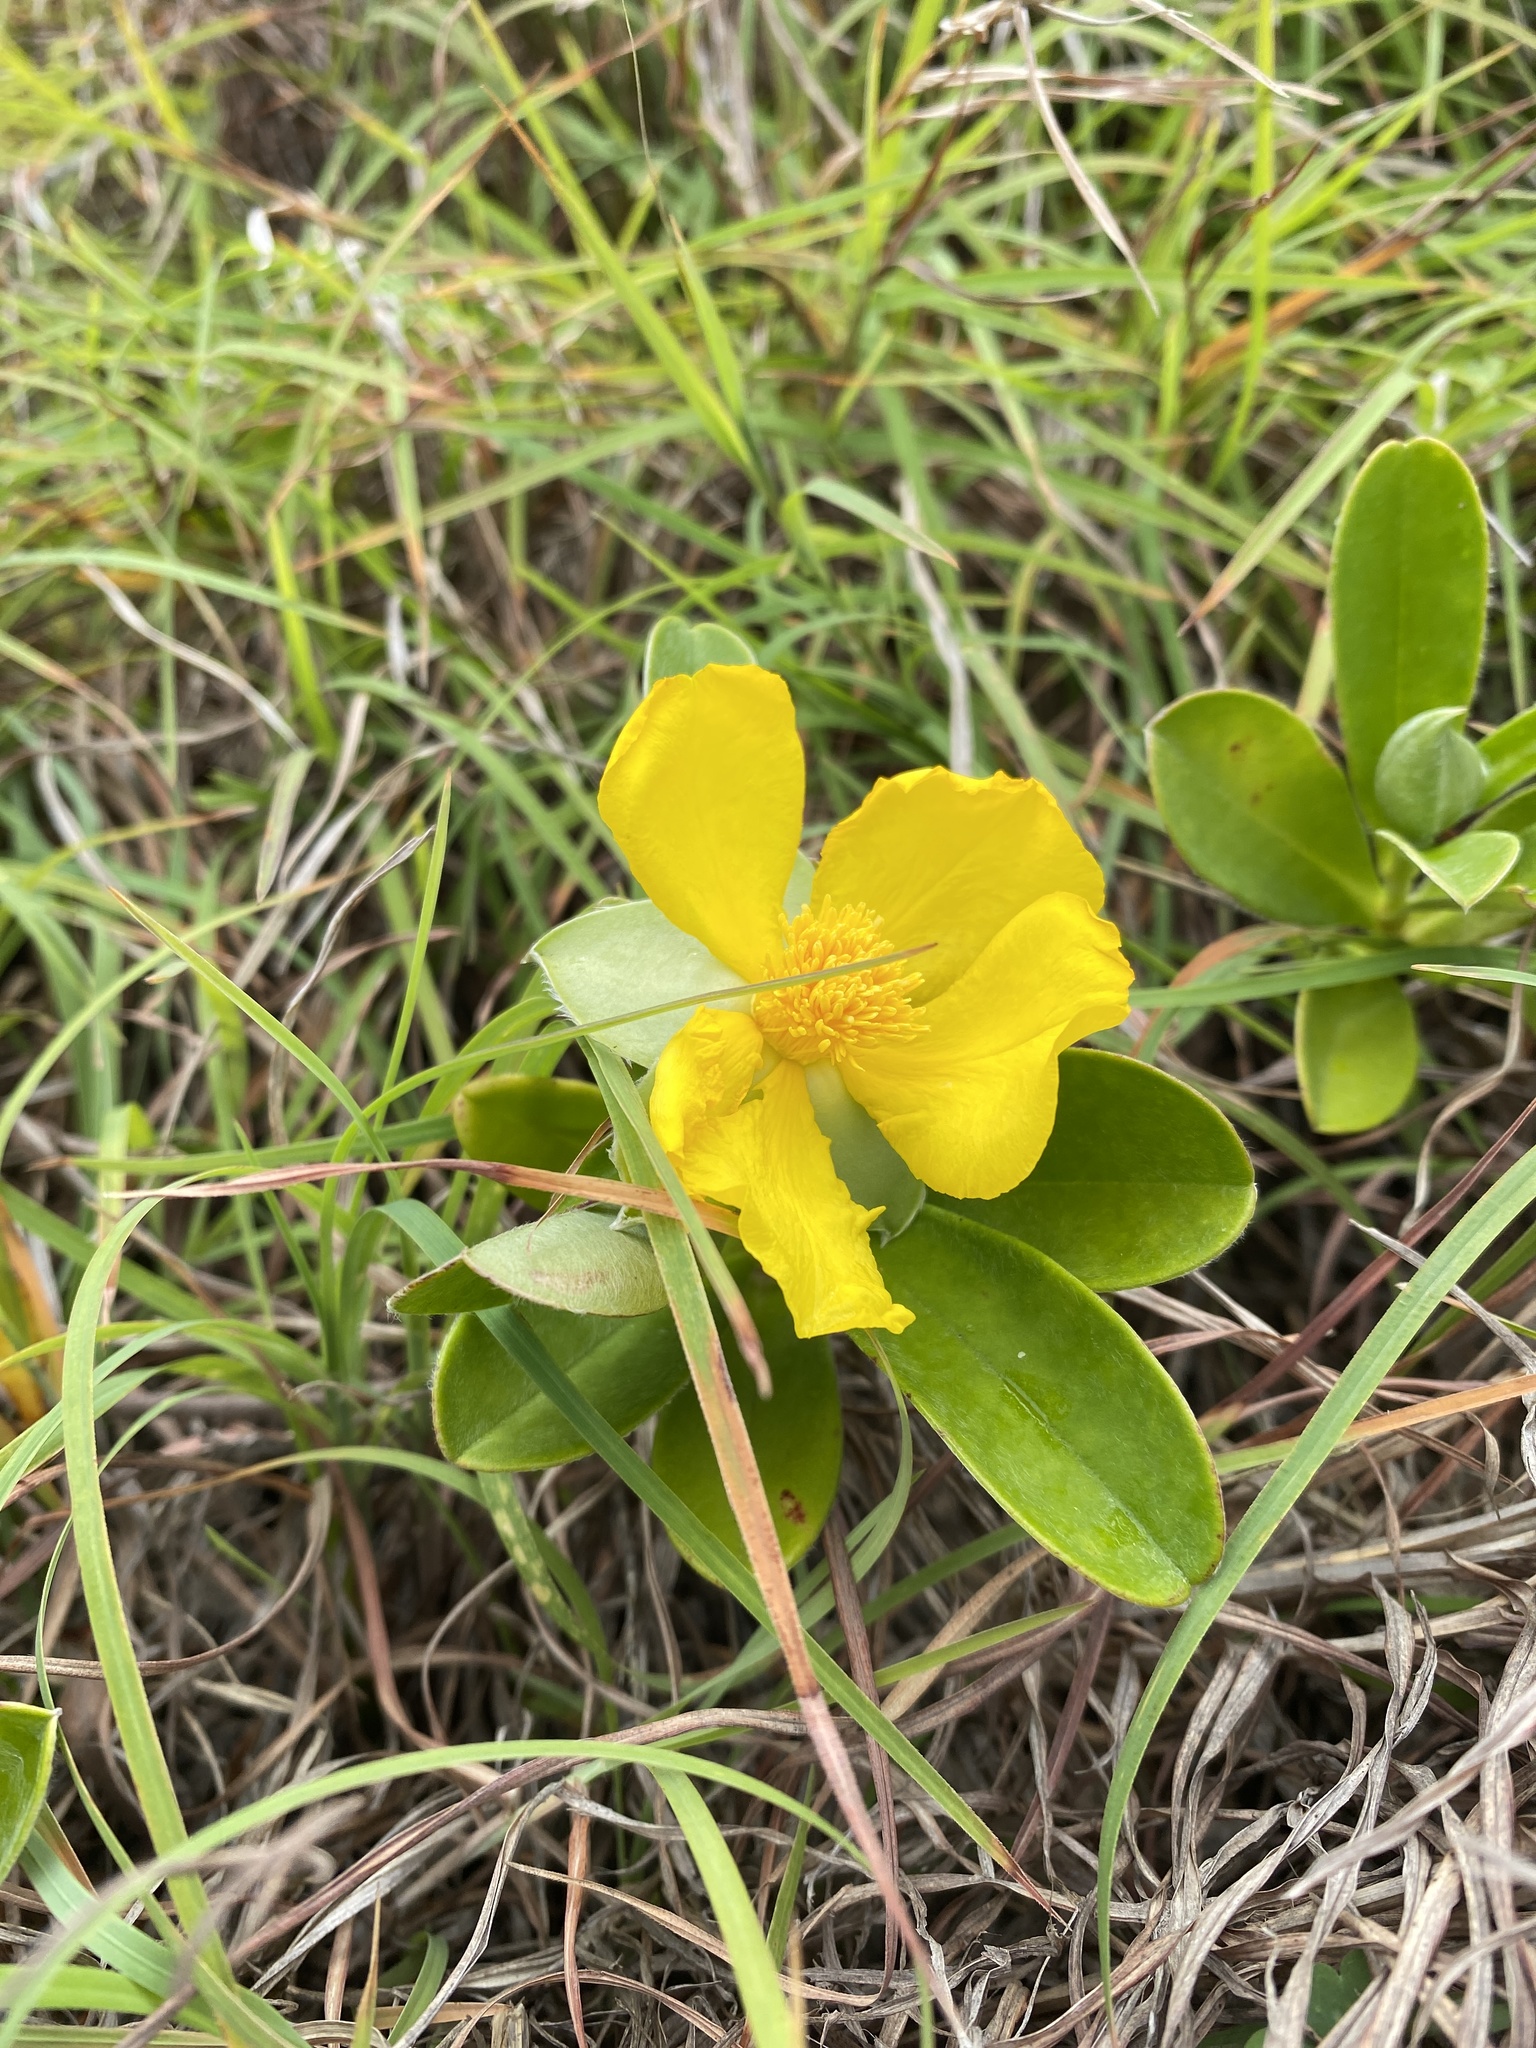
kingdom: Plantae
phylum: Tracheophyta
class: Magnoliopsida
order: Dilleniales
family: Dilleniaceae
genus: Hibbertia
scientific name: Hibbertia scandens
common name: Climbing guinea-flower
